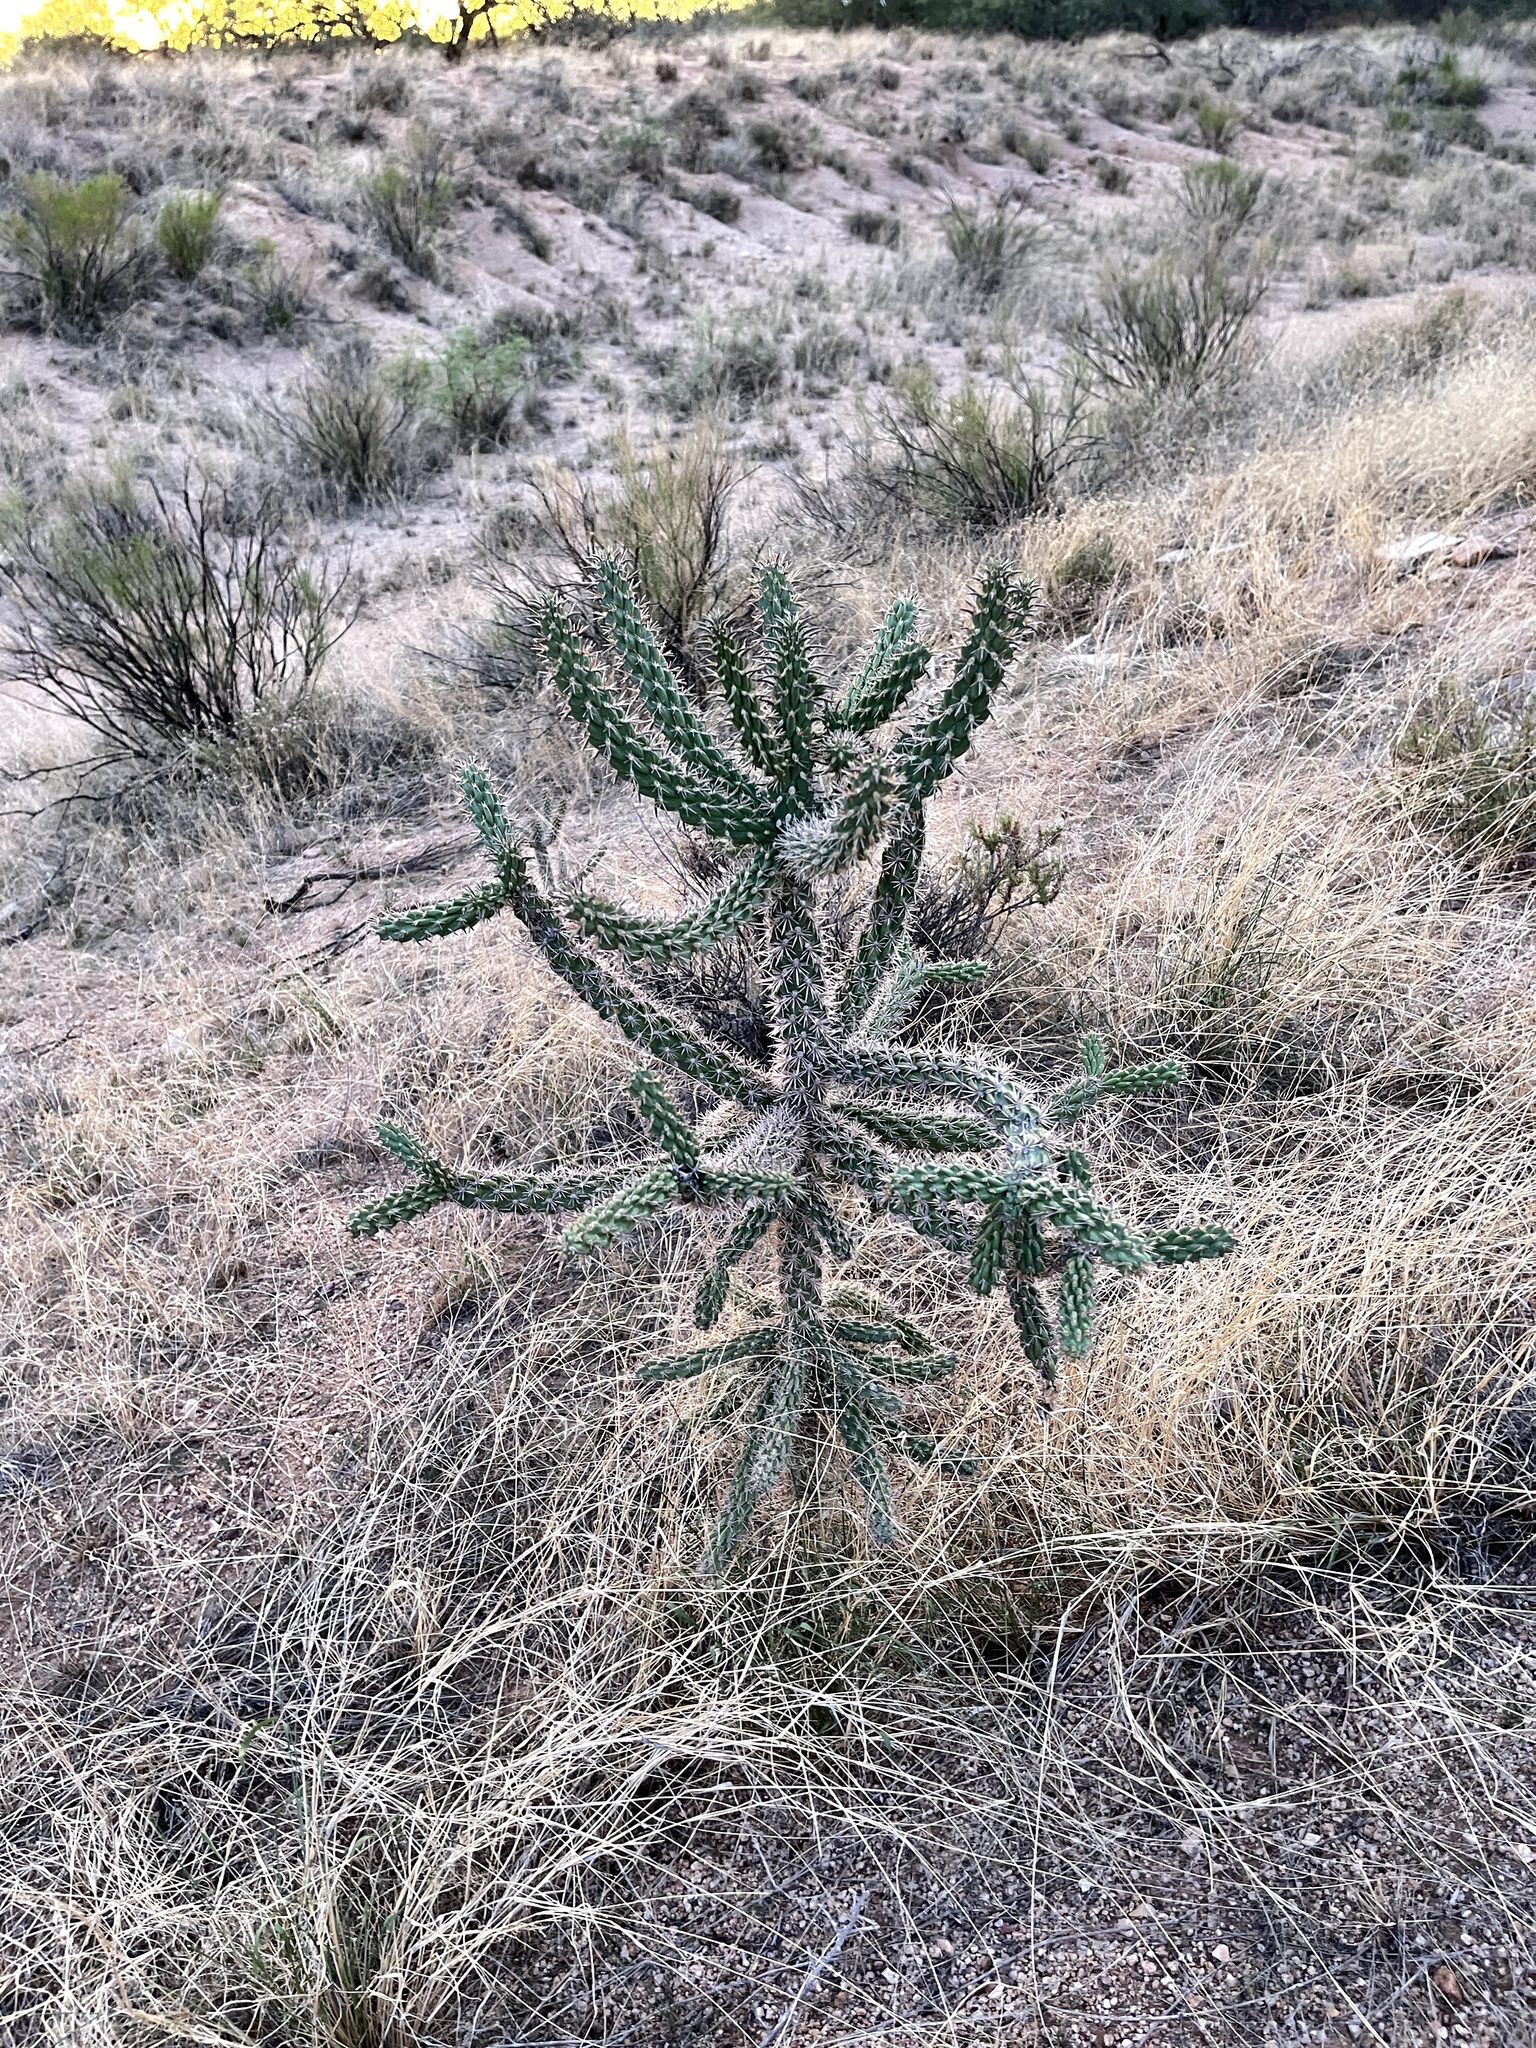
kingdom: Plantae
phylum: Tracheophyta
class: Magnoliopsida
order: Caryophyllales
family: Cactaceae
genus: Cylindropuntia
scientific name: Cylindropuntia imbricata
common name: Candelabrum cactus
